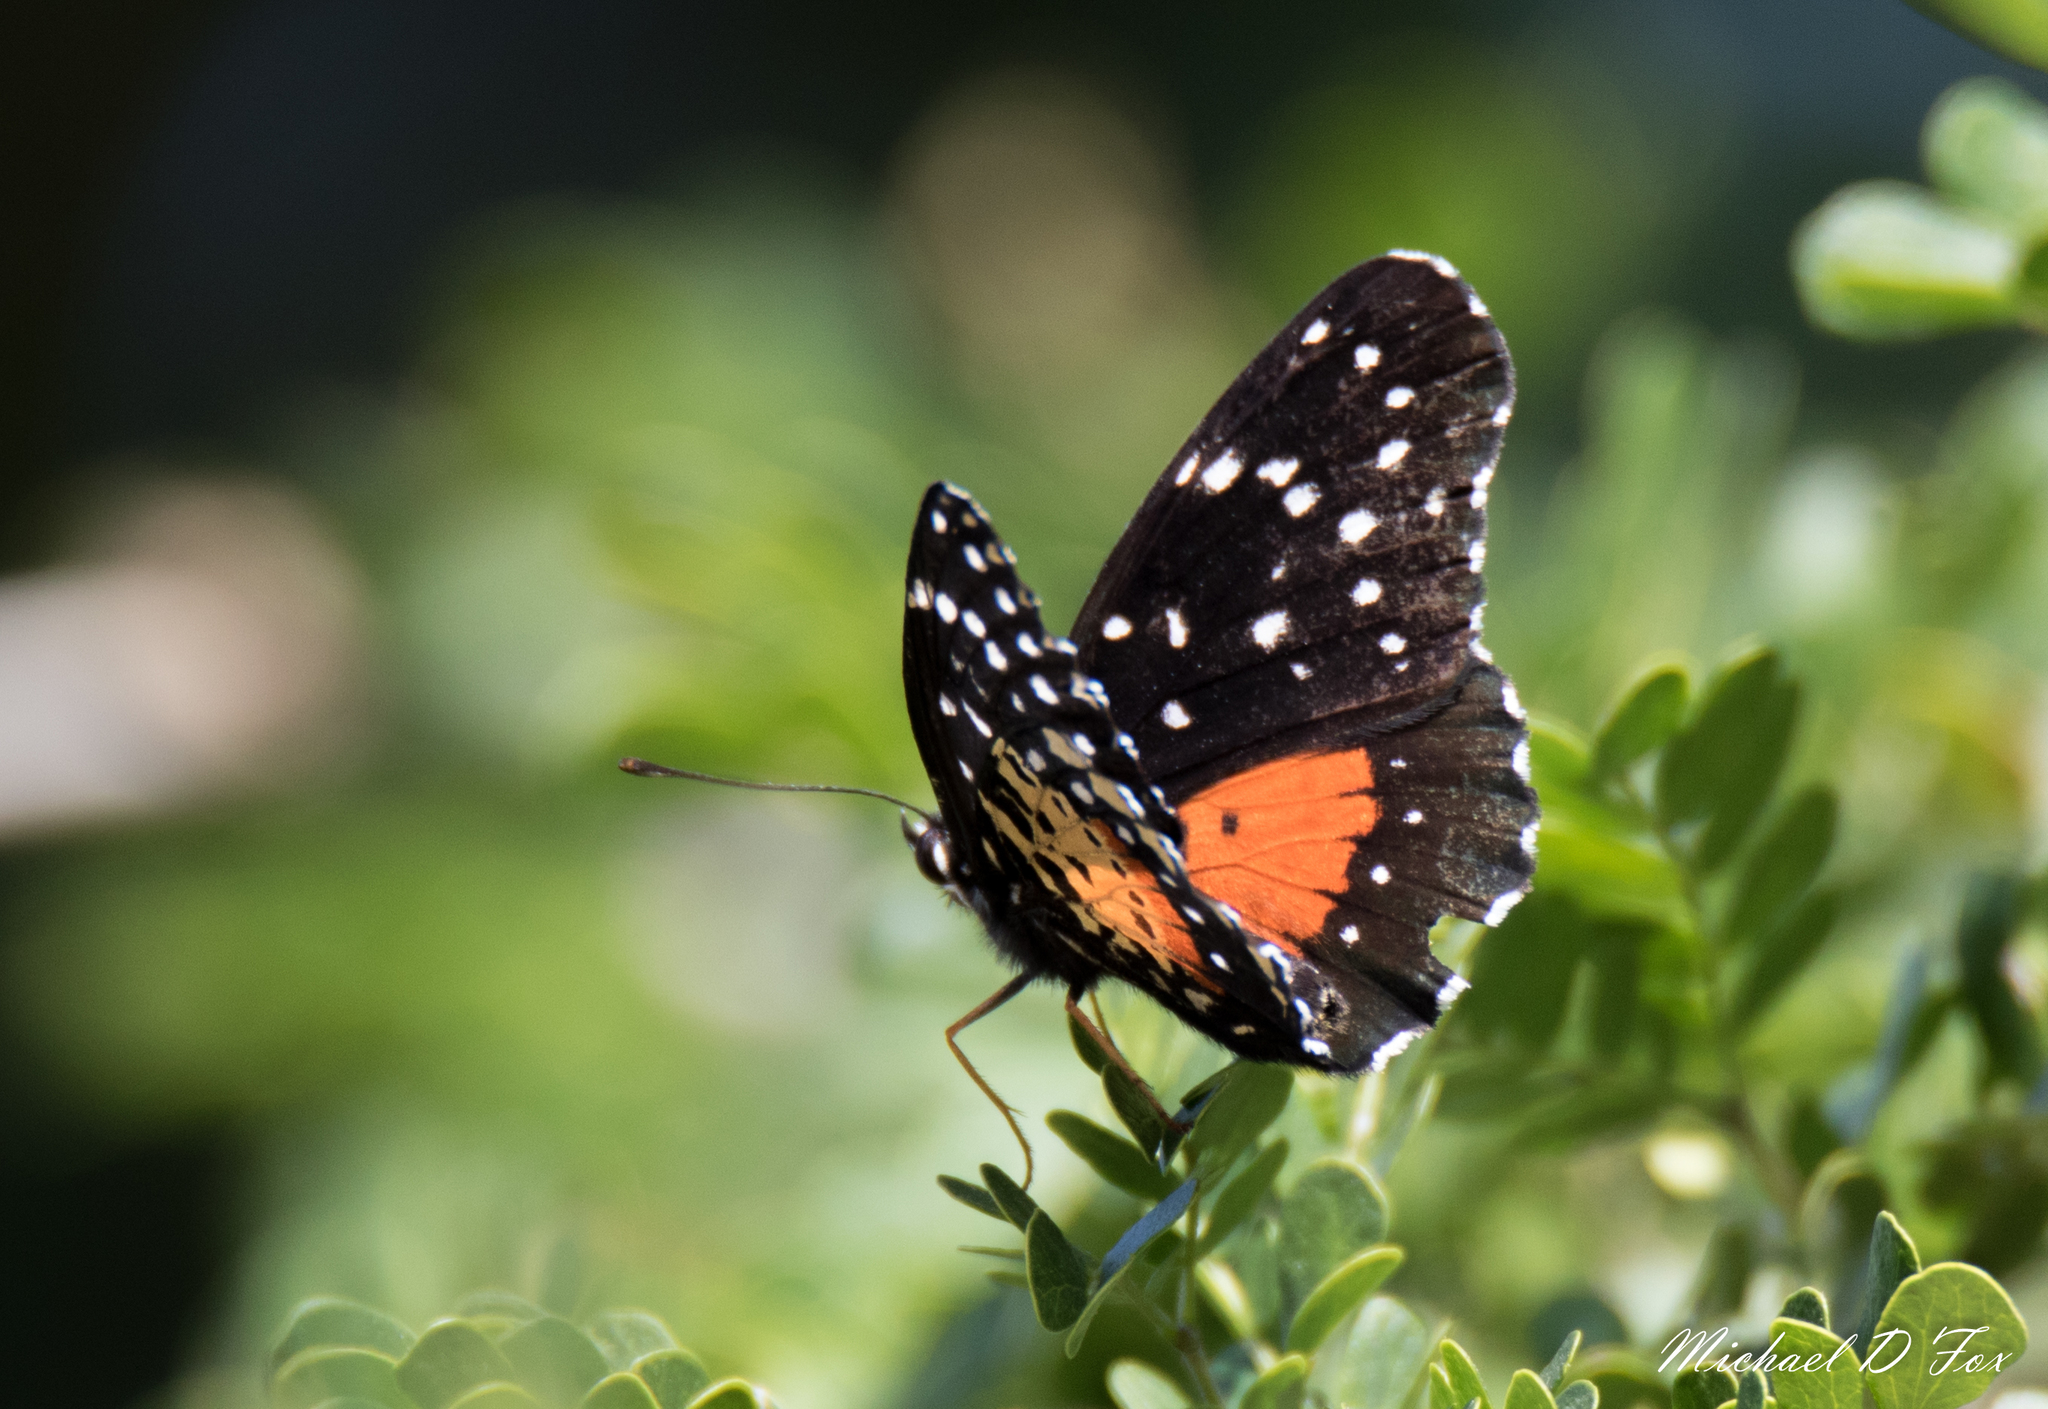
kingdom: Animalia
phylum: Arthropoda
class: Insecta
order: Lepidoptera
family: Nymphalidae
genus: Chlosyne
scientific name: Chlosyne janais
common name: Crimson patch
